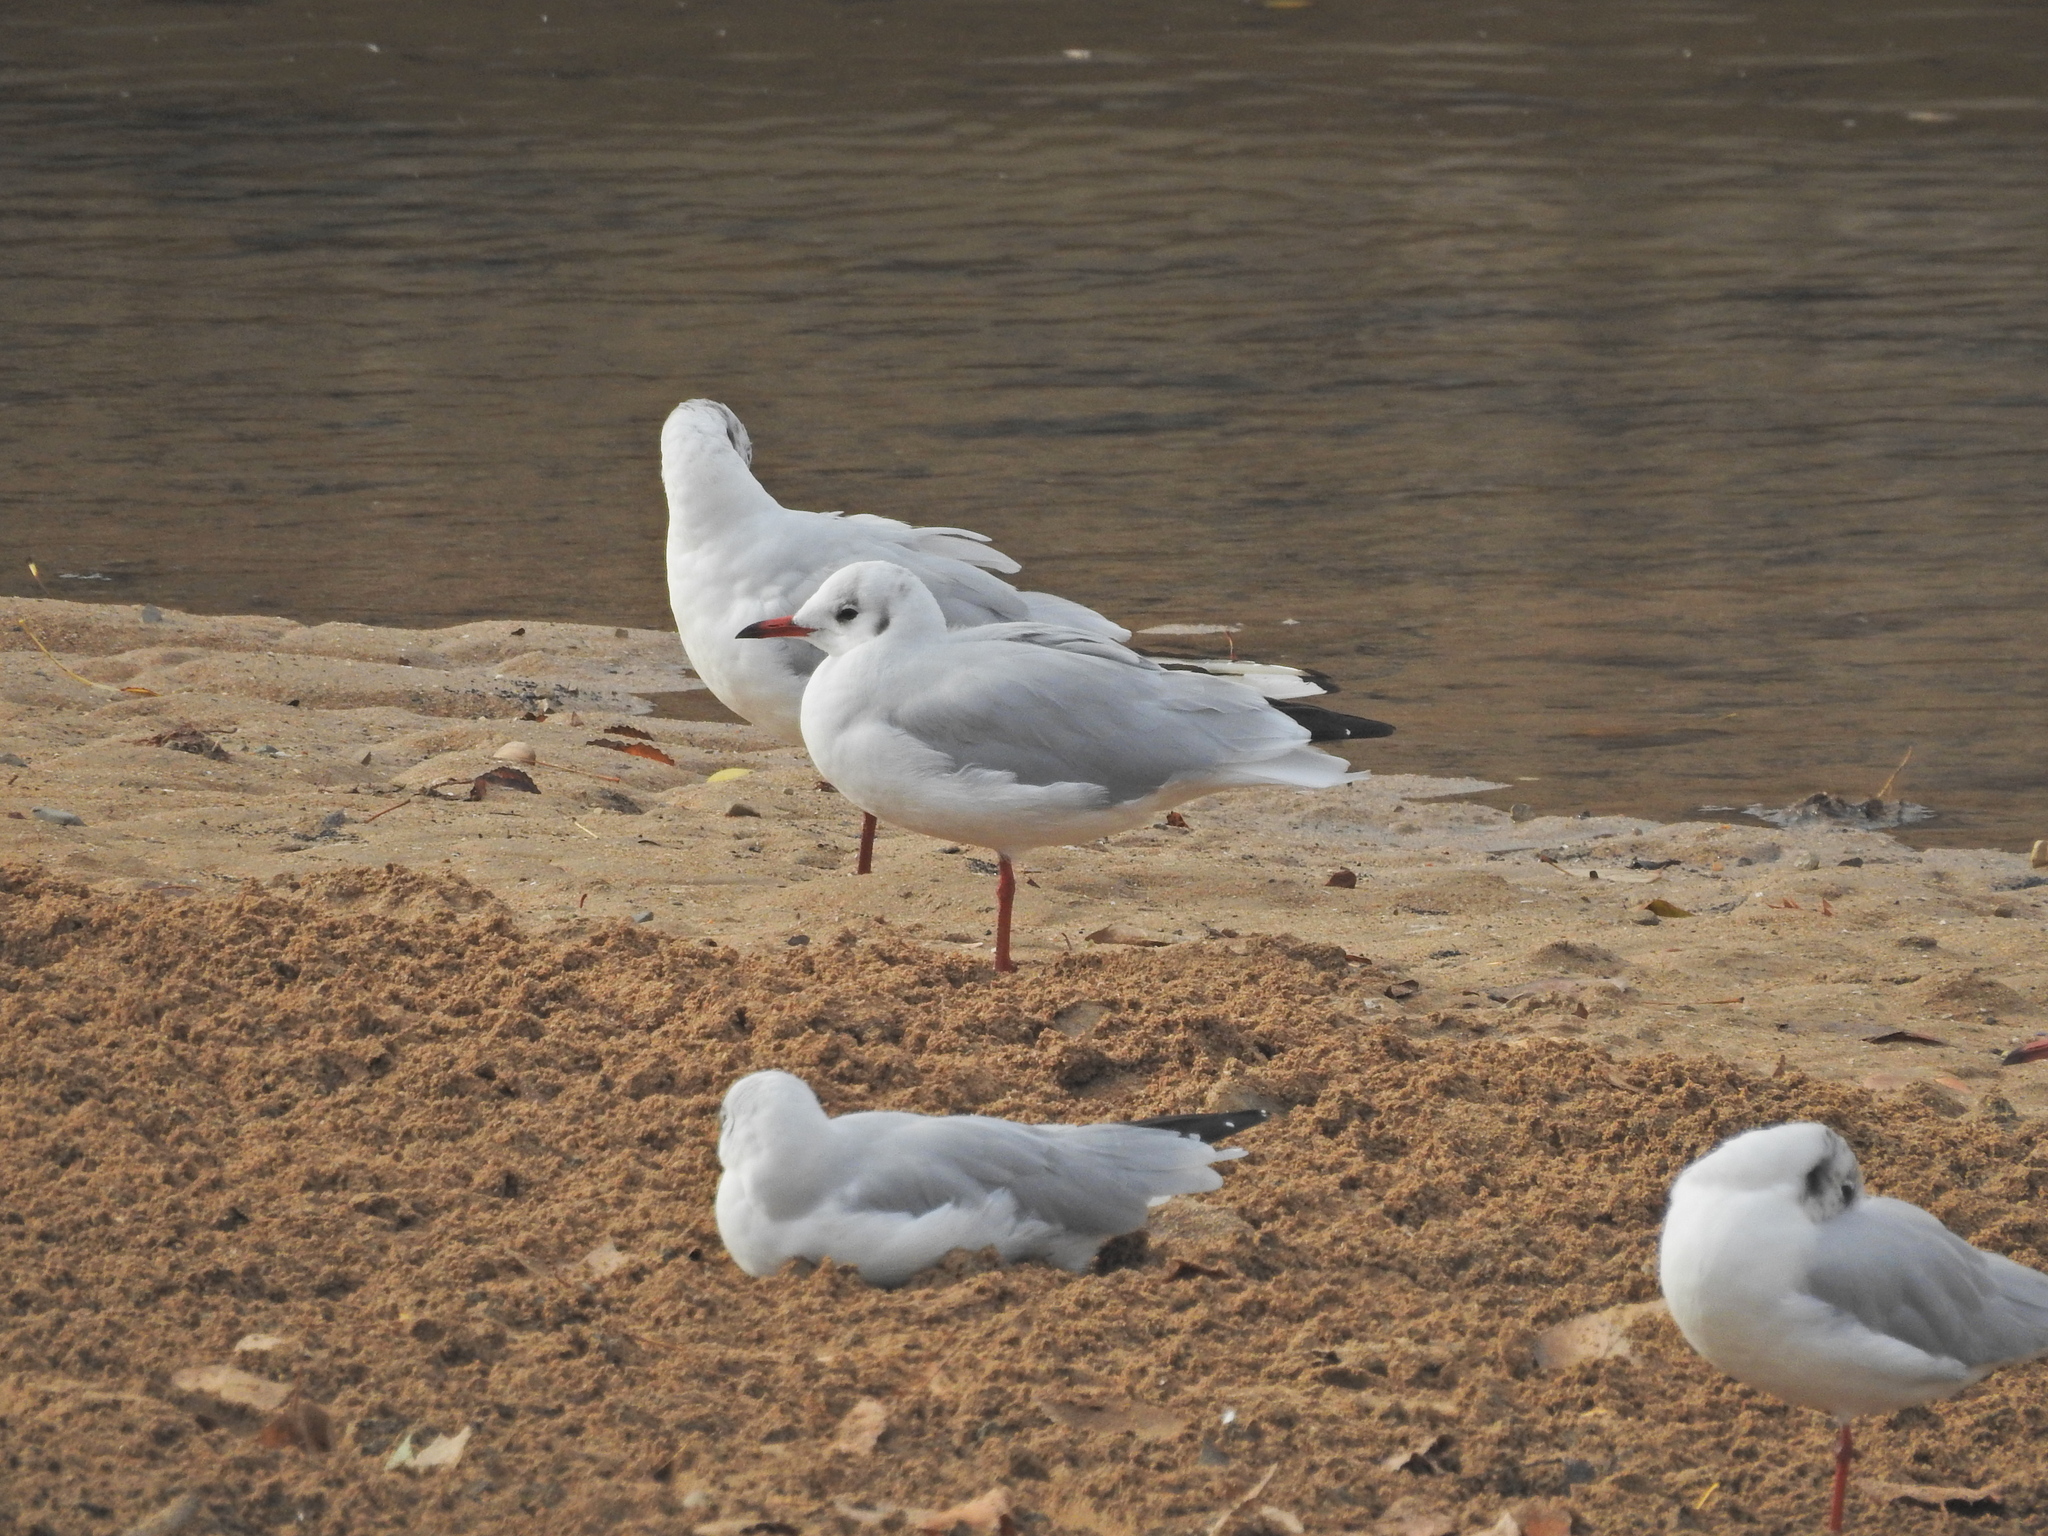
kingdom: Animalia
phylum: Chordata
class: Aves
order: Charadriiformes
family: Laridae
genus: Chroicocephalus
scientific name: Chroicocephalus ridibundus
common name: Black-headed gull
